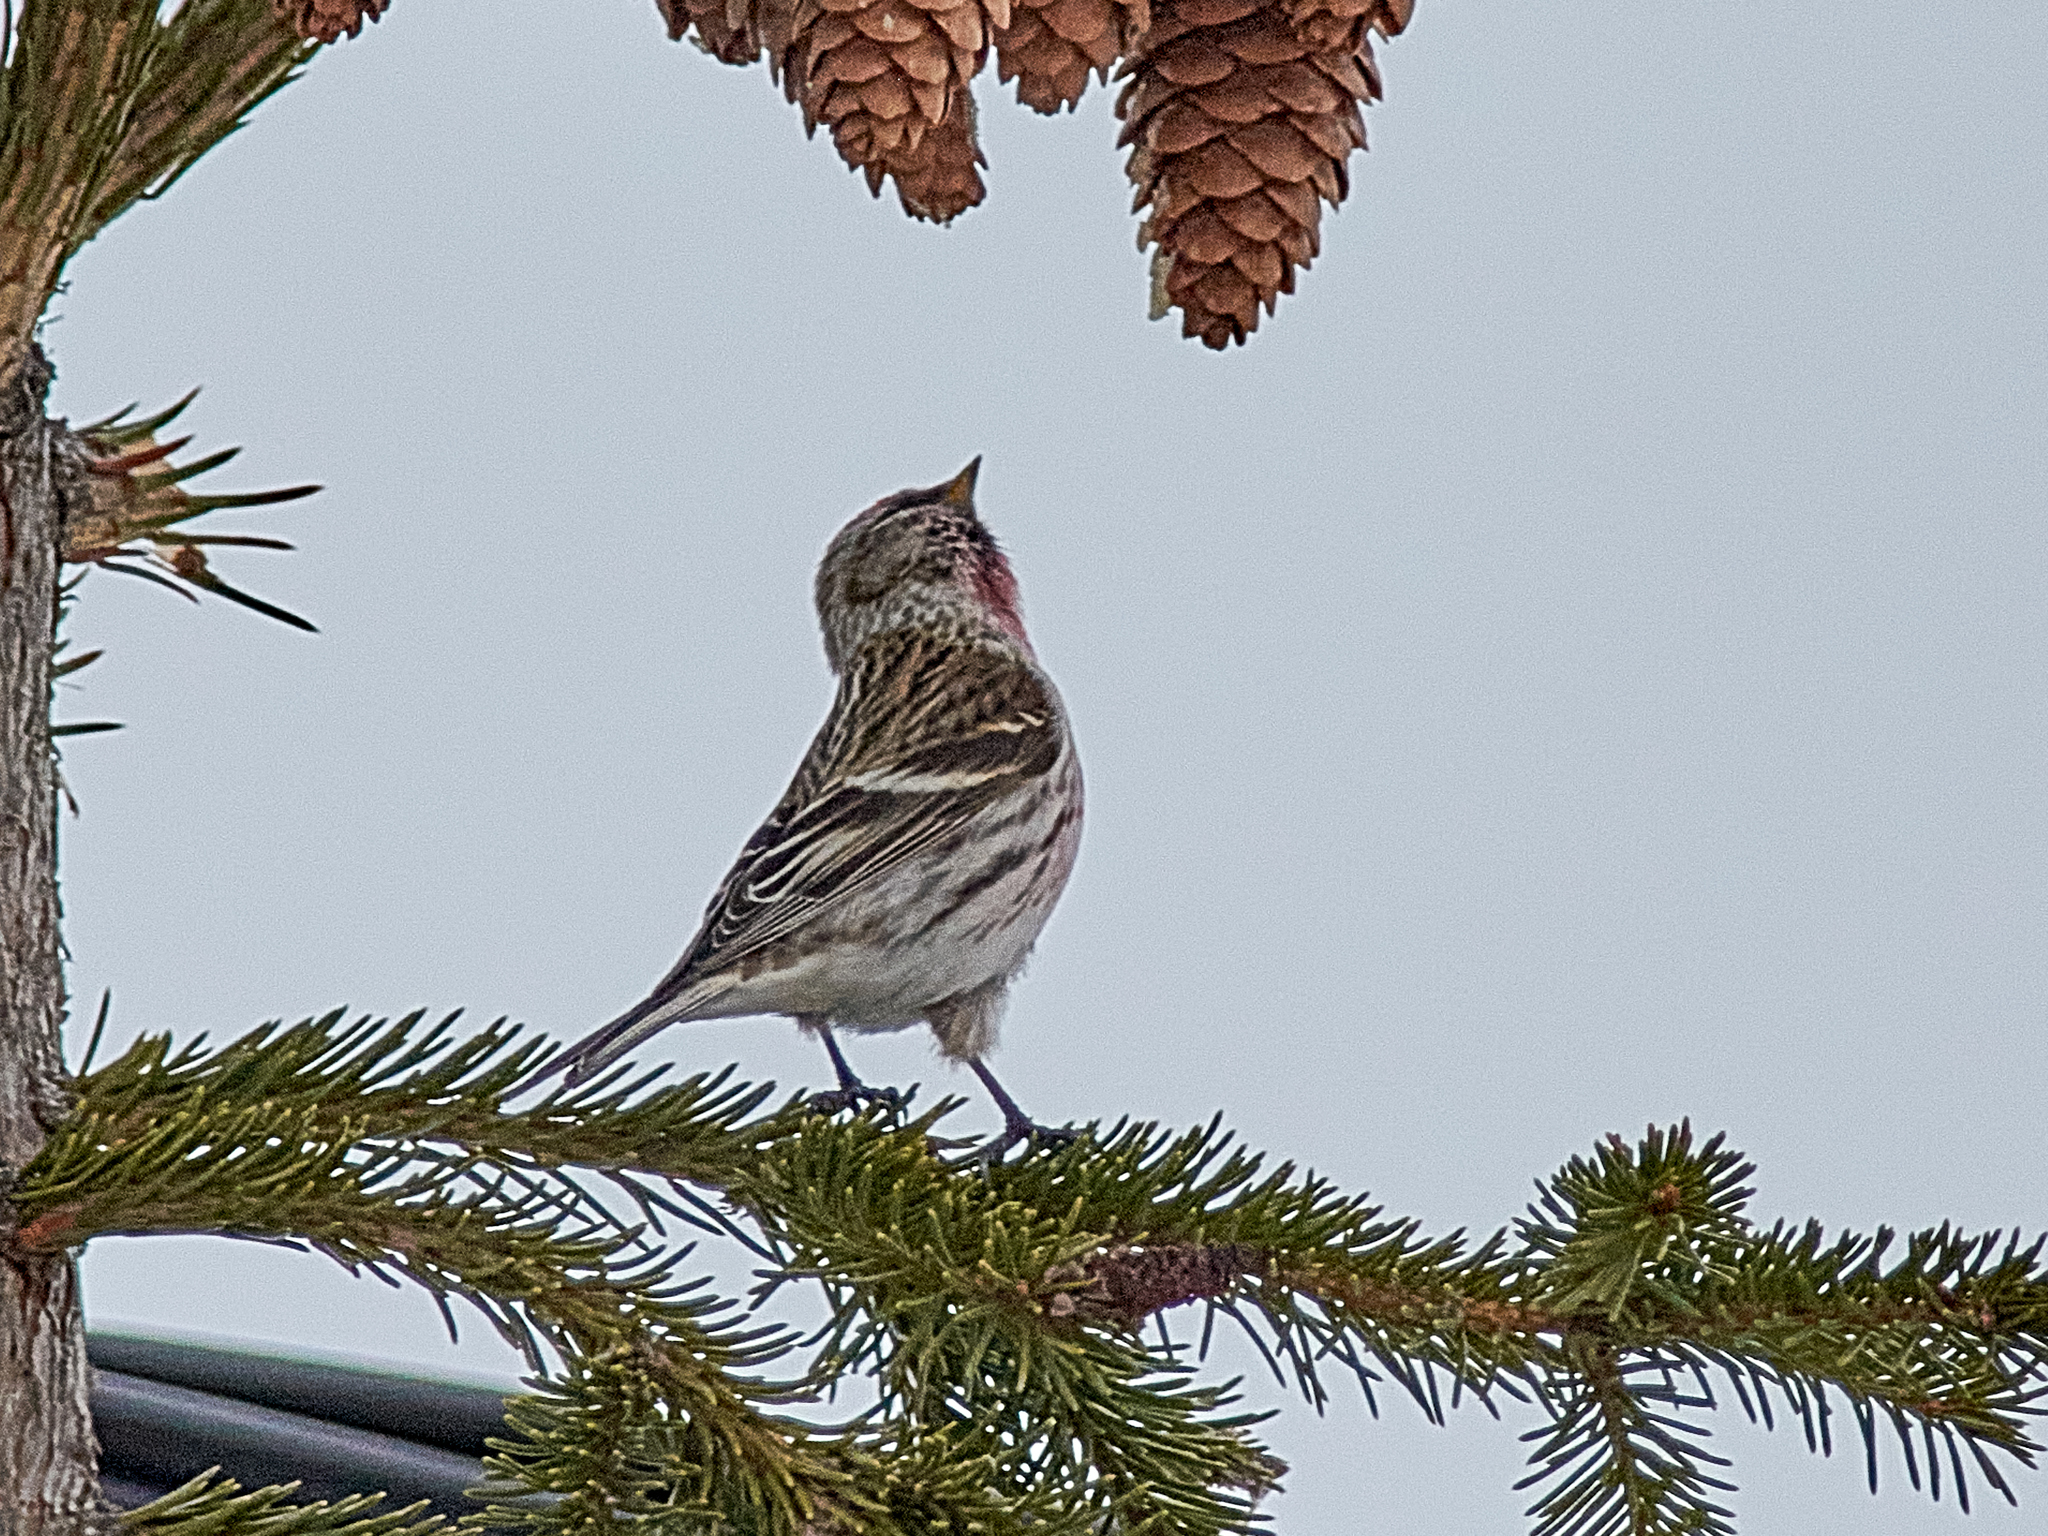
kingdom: Animalia
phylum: Chordata
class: Aves
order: Passeriformes
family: Fringillidae
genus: Acanthis
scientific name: Acanthis flammea
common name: Common redpoll
